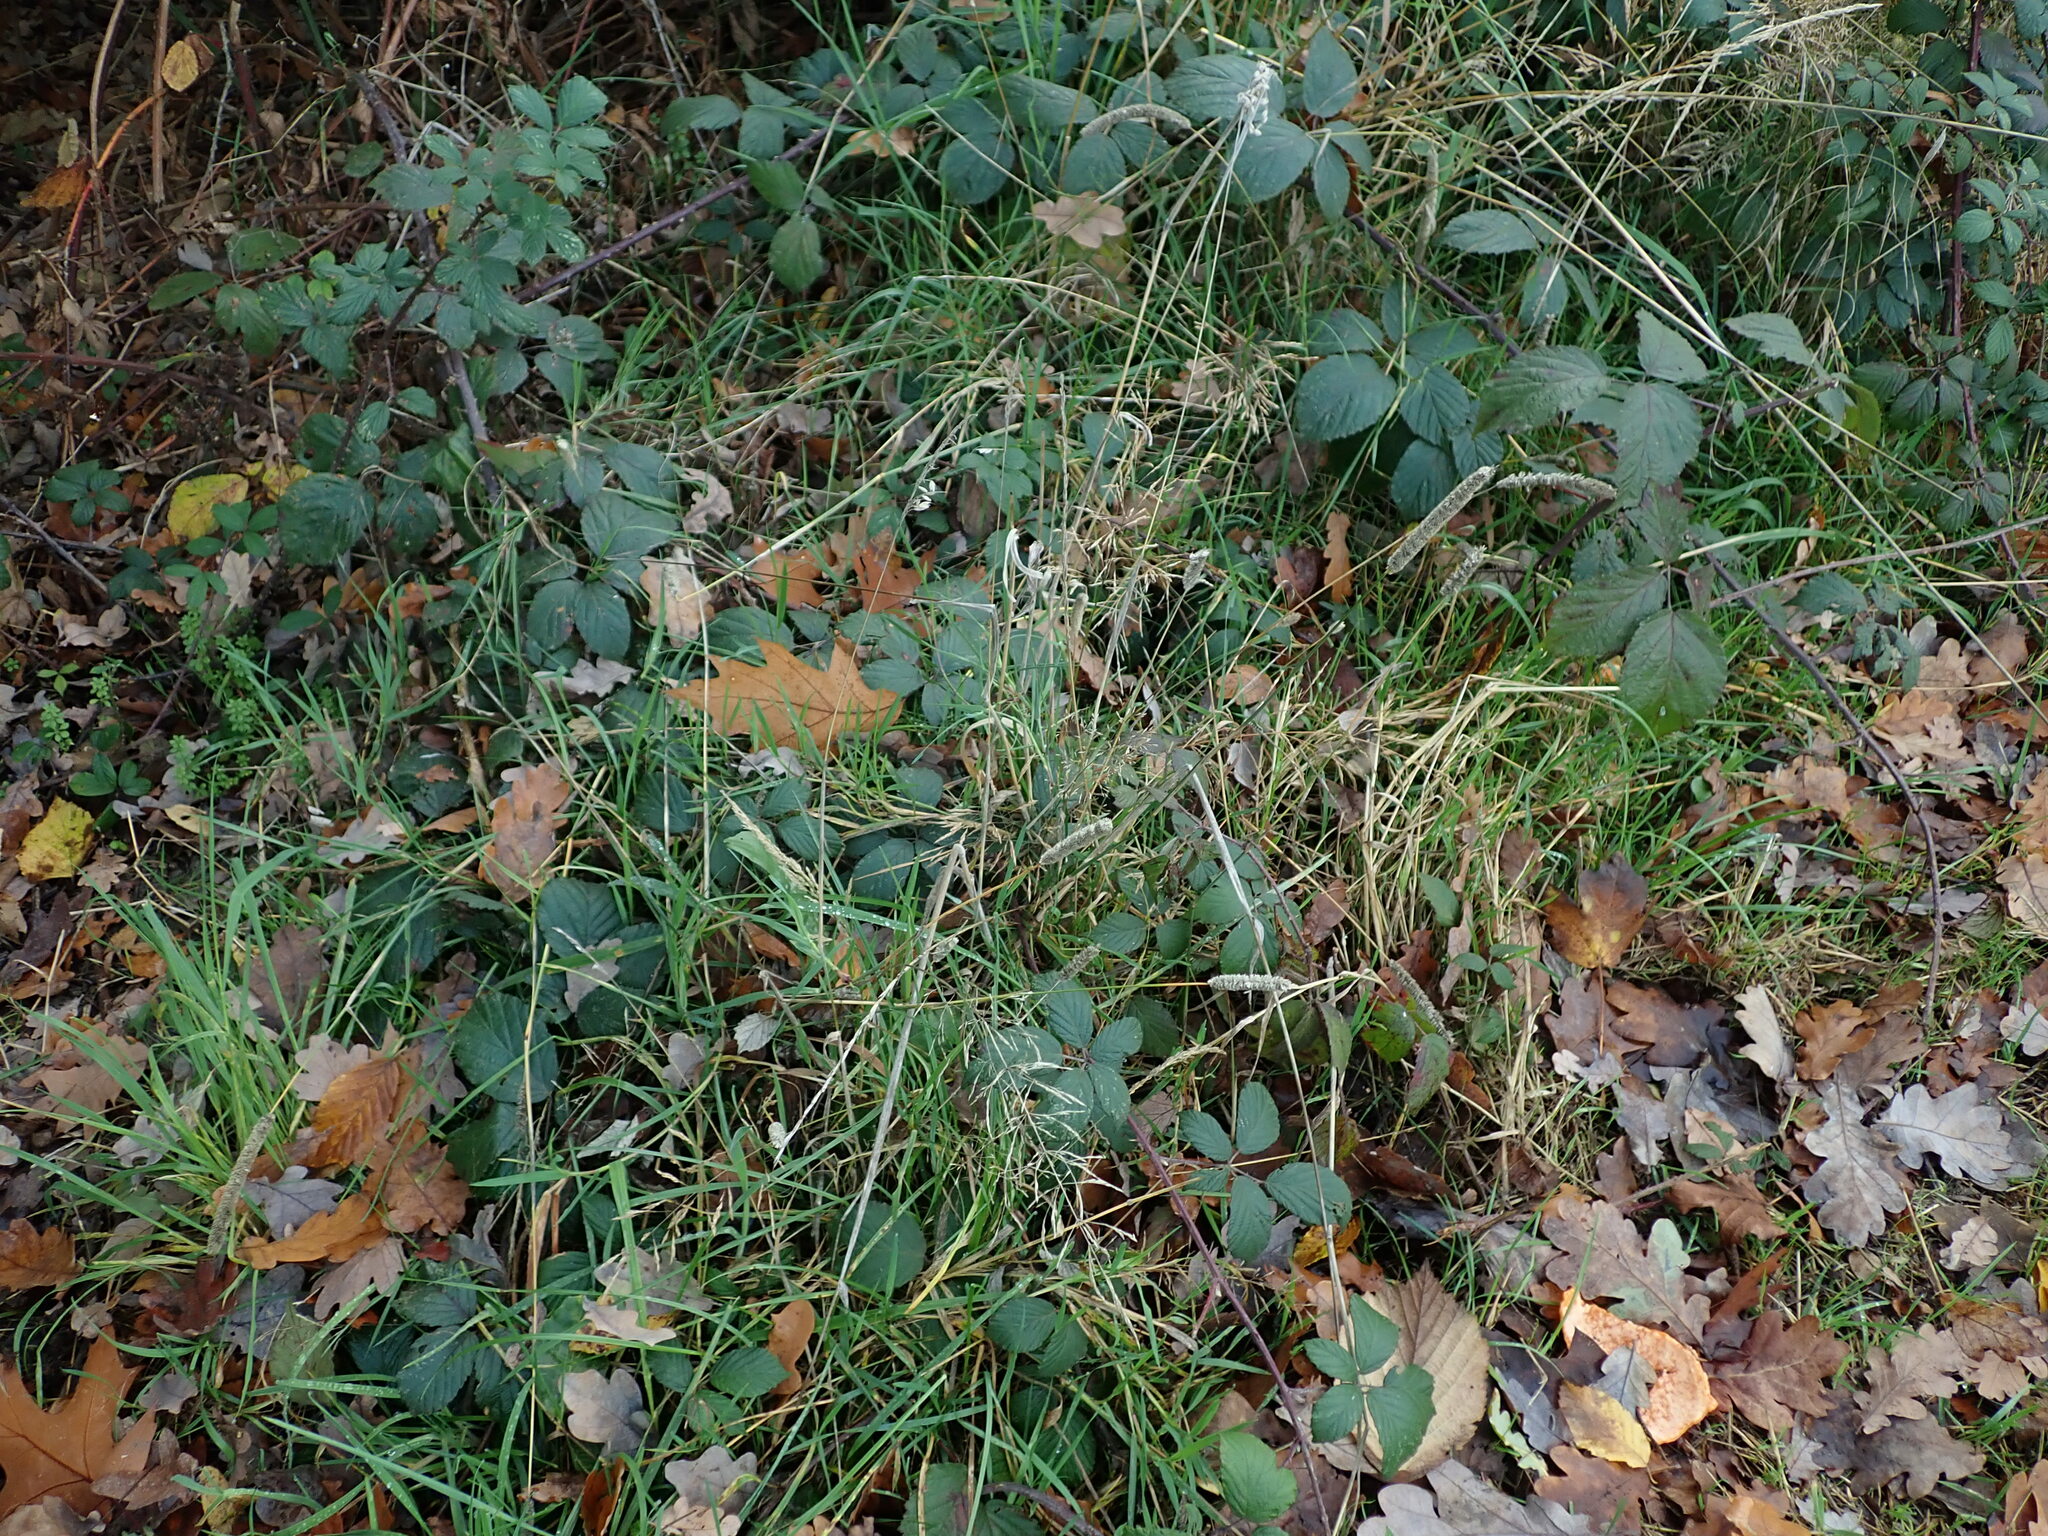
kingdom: Plantae
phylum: Tracheophyta
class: Liliopsida
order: Poales
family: Poaceae
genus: Phleum
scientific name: Phleum pratense
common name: Timothy grass
